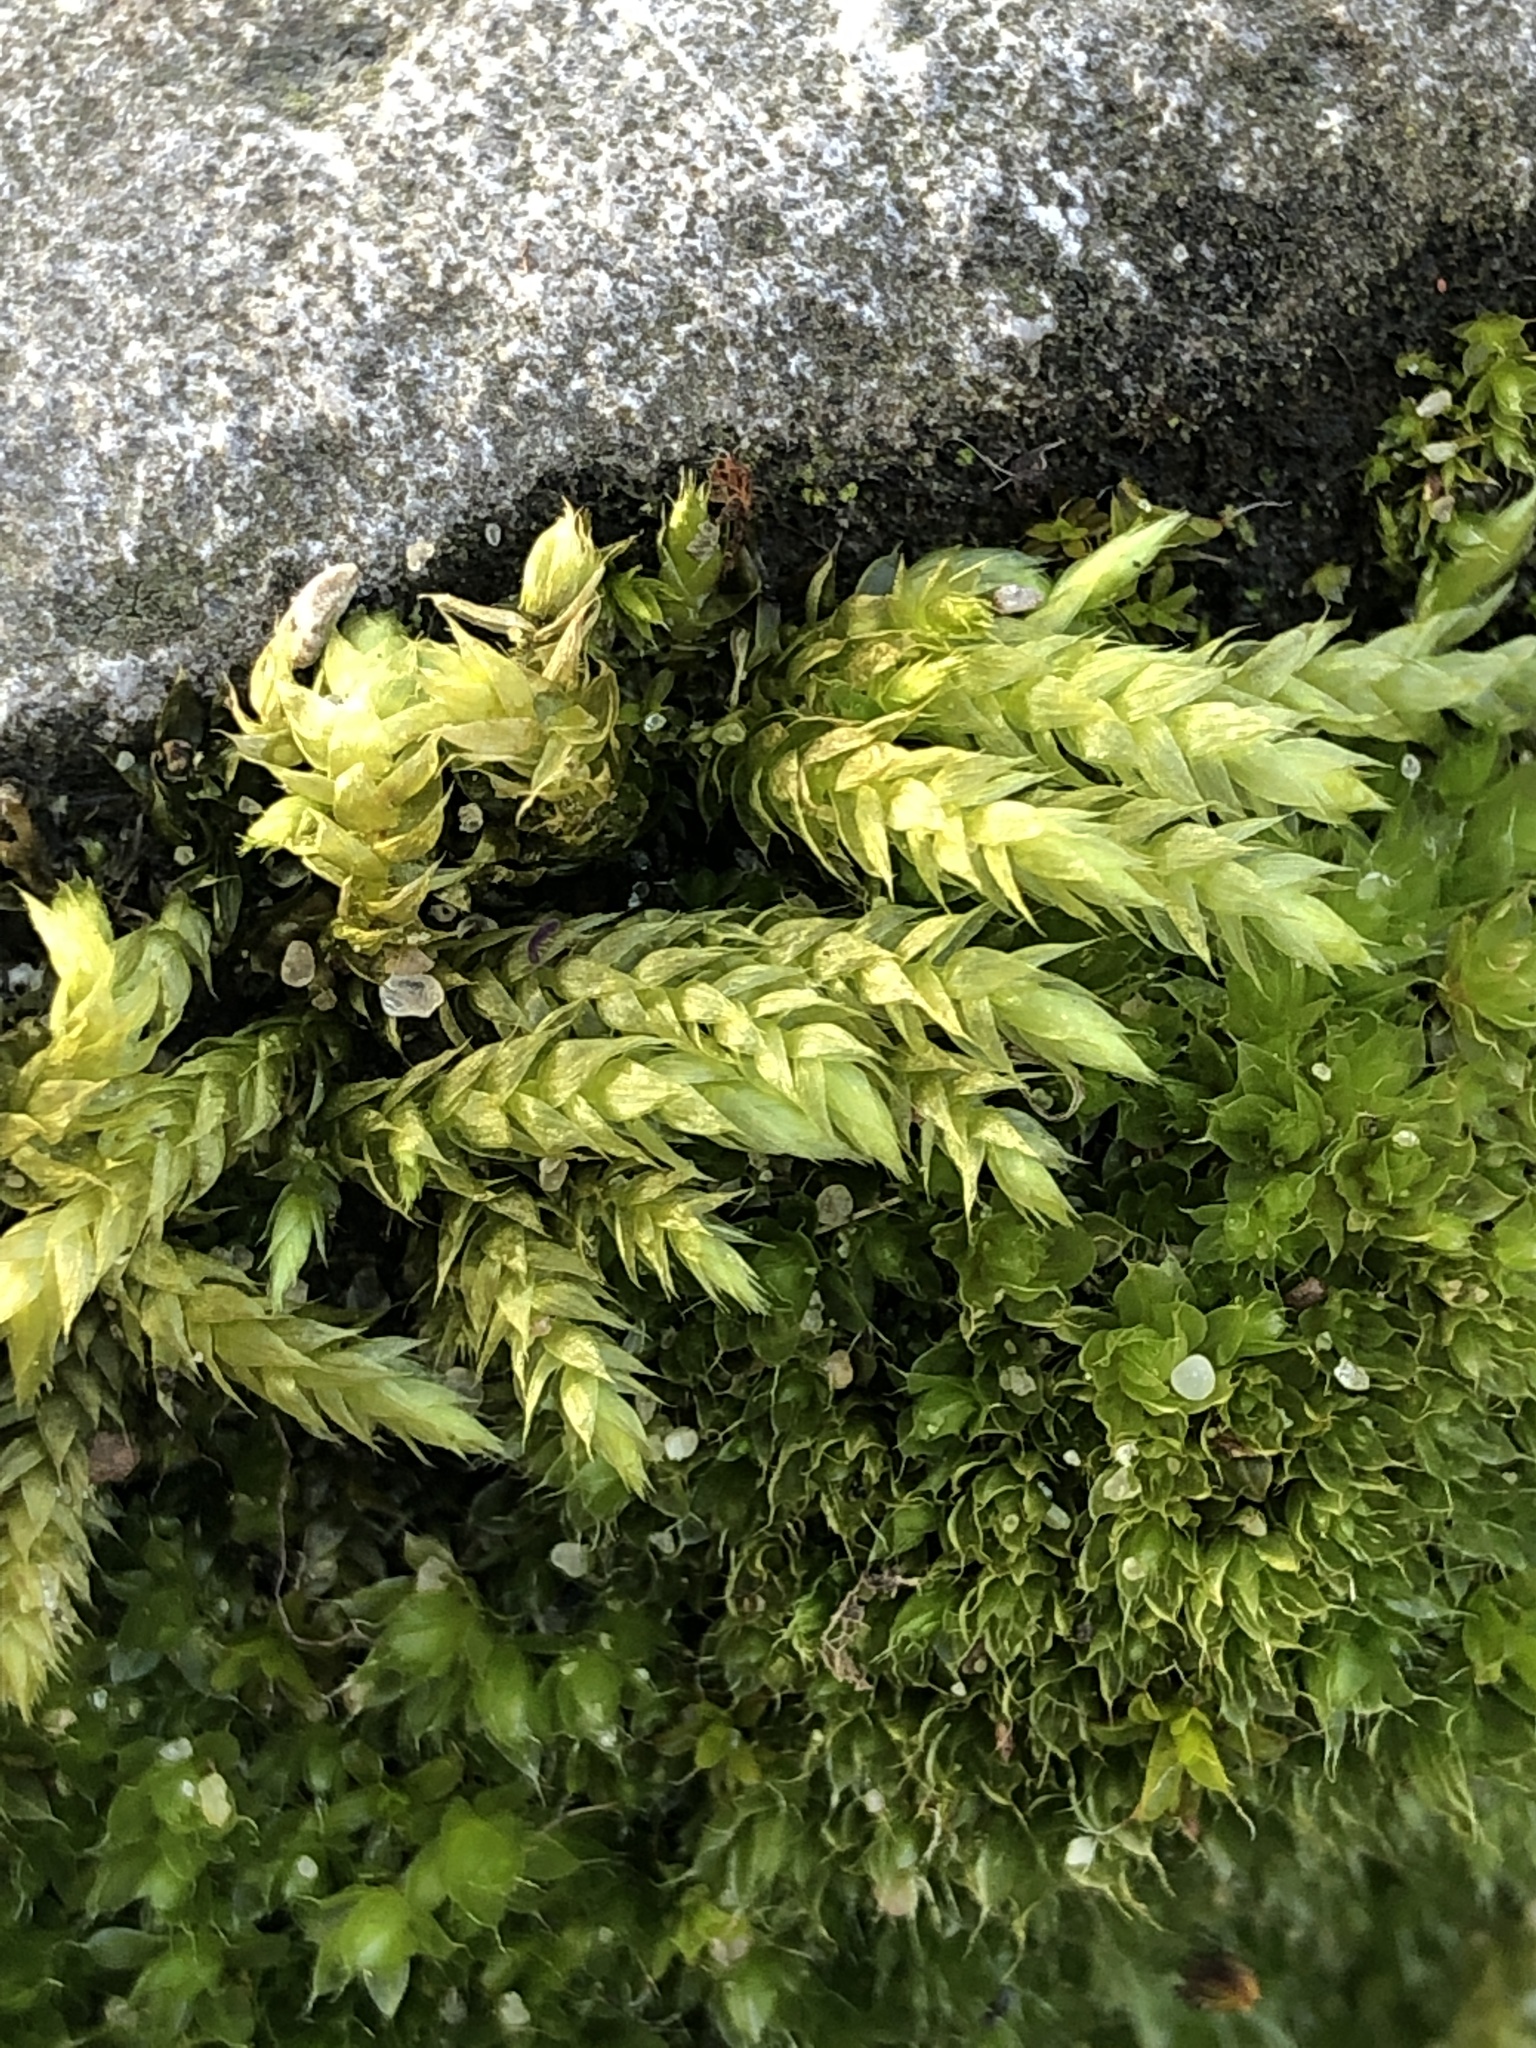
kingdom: Plantae
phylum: Bryophyta
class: Bryopsida
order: Hypnales
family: Hypnaceae
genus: Hypnum
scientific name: Hypnum cupressiforme
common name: Cypress-leaved plait-moss
